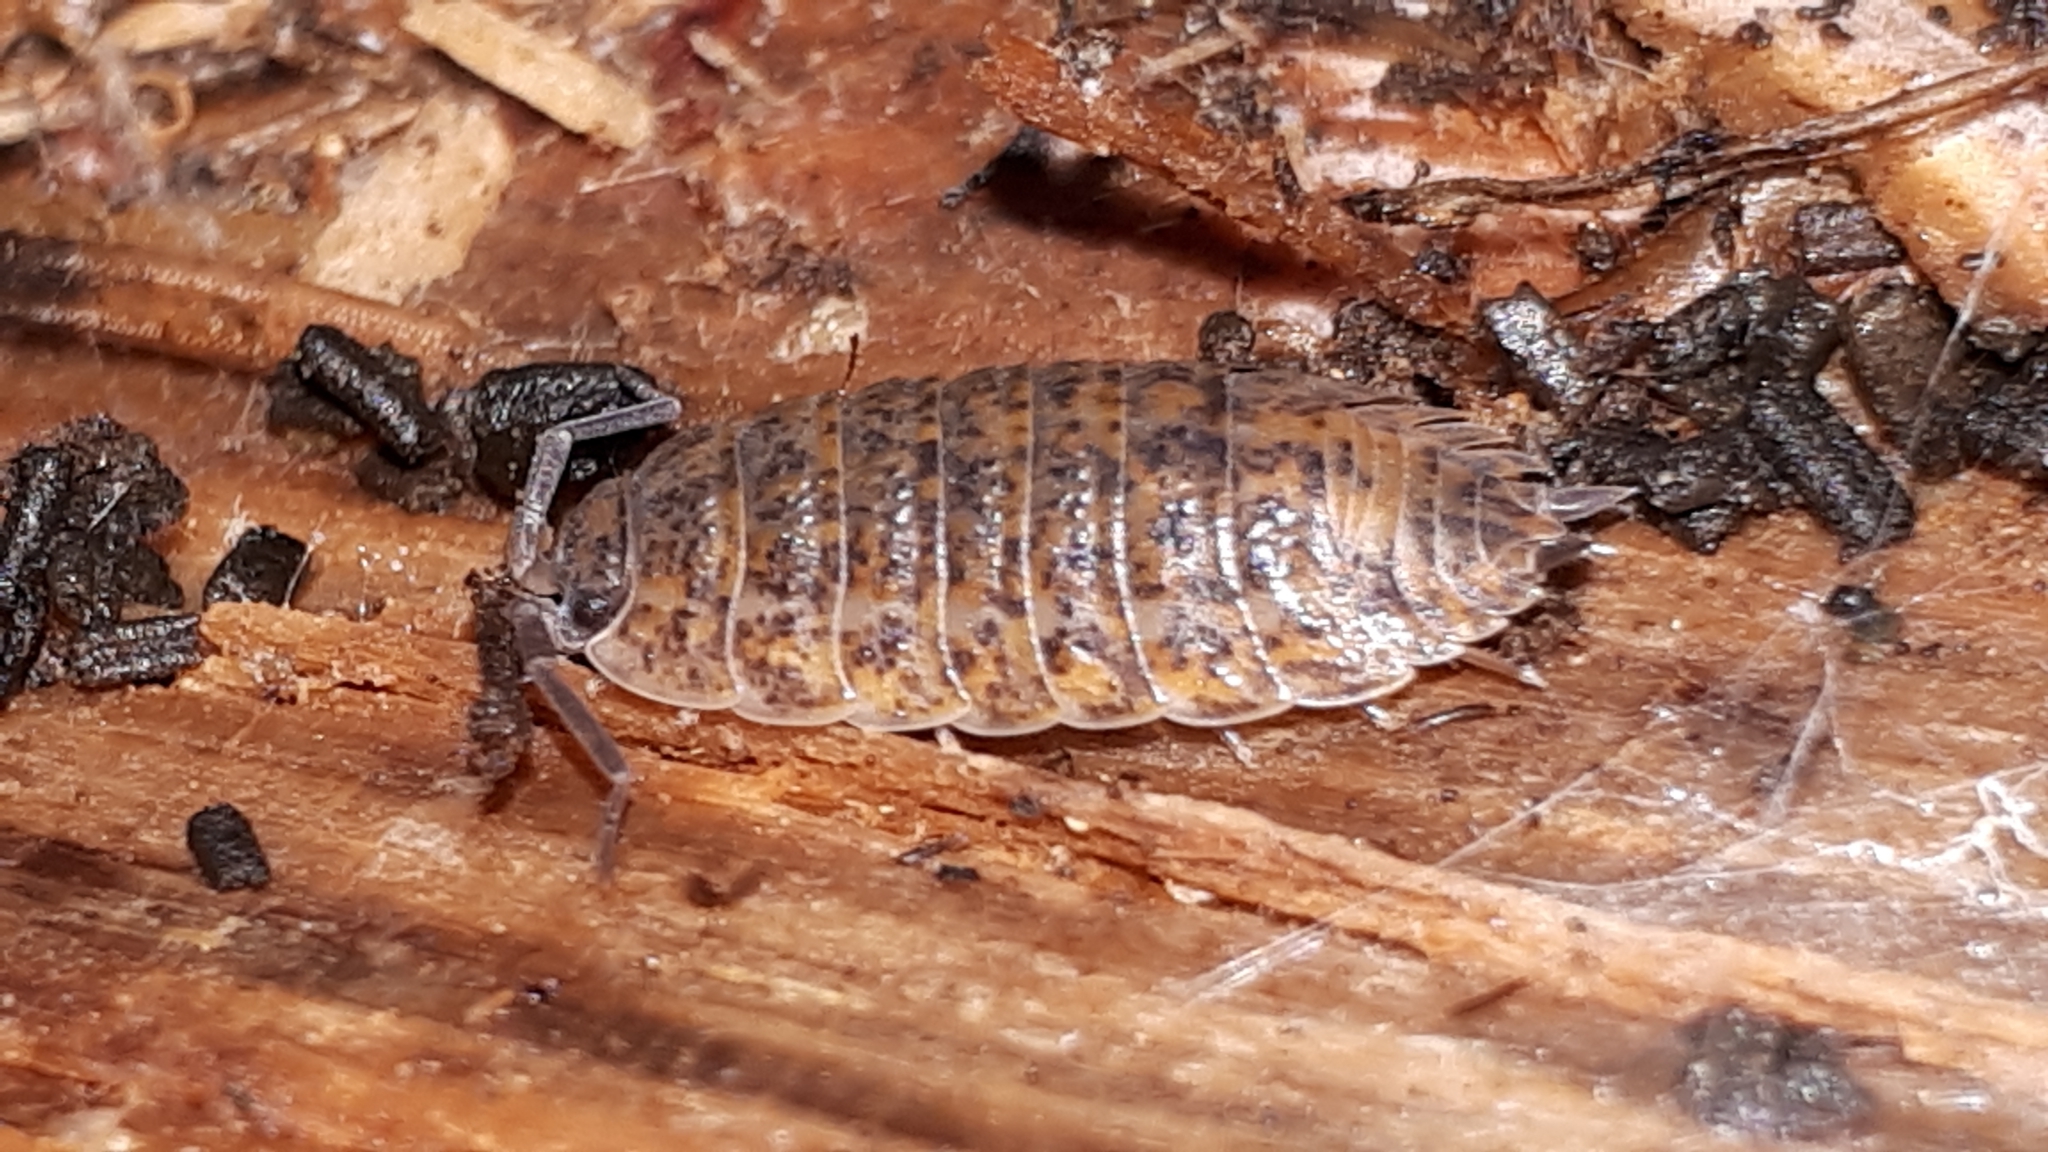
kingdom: Animalia
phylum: Arthropoda
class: Malacostraca
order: Isopoda
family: Trachelipodidae
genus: Trachelipus
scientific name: Trachelipus rathkii
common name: Isopod
